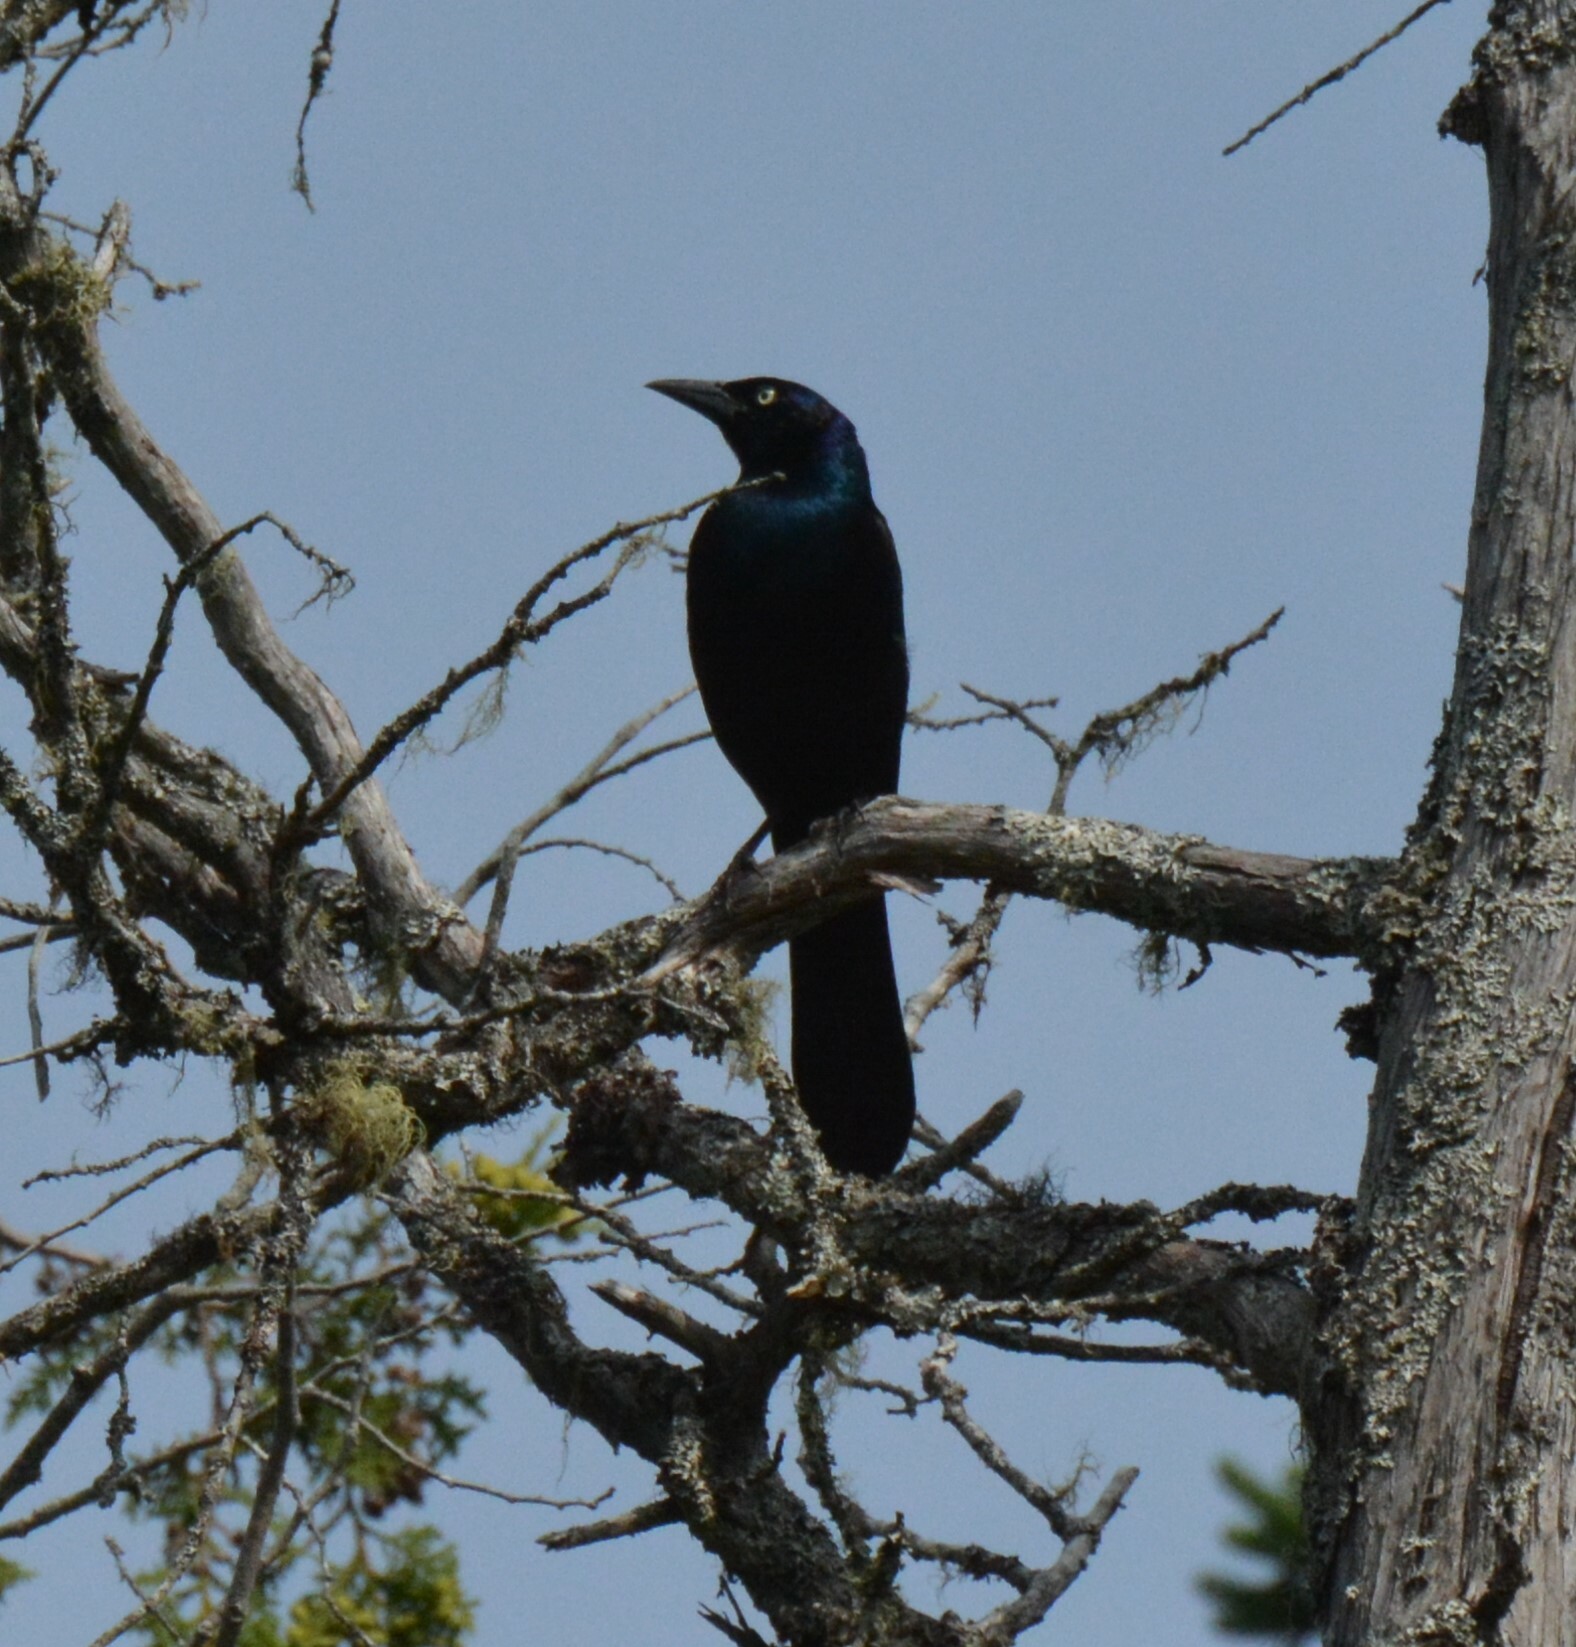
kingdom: Animalia
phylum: Chordata
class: Aves
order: Passeriformes
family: Icteridae
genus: Quiscalus
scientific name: Quiscalus quiscula
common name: Common grackle
